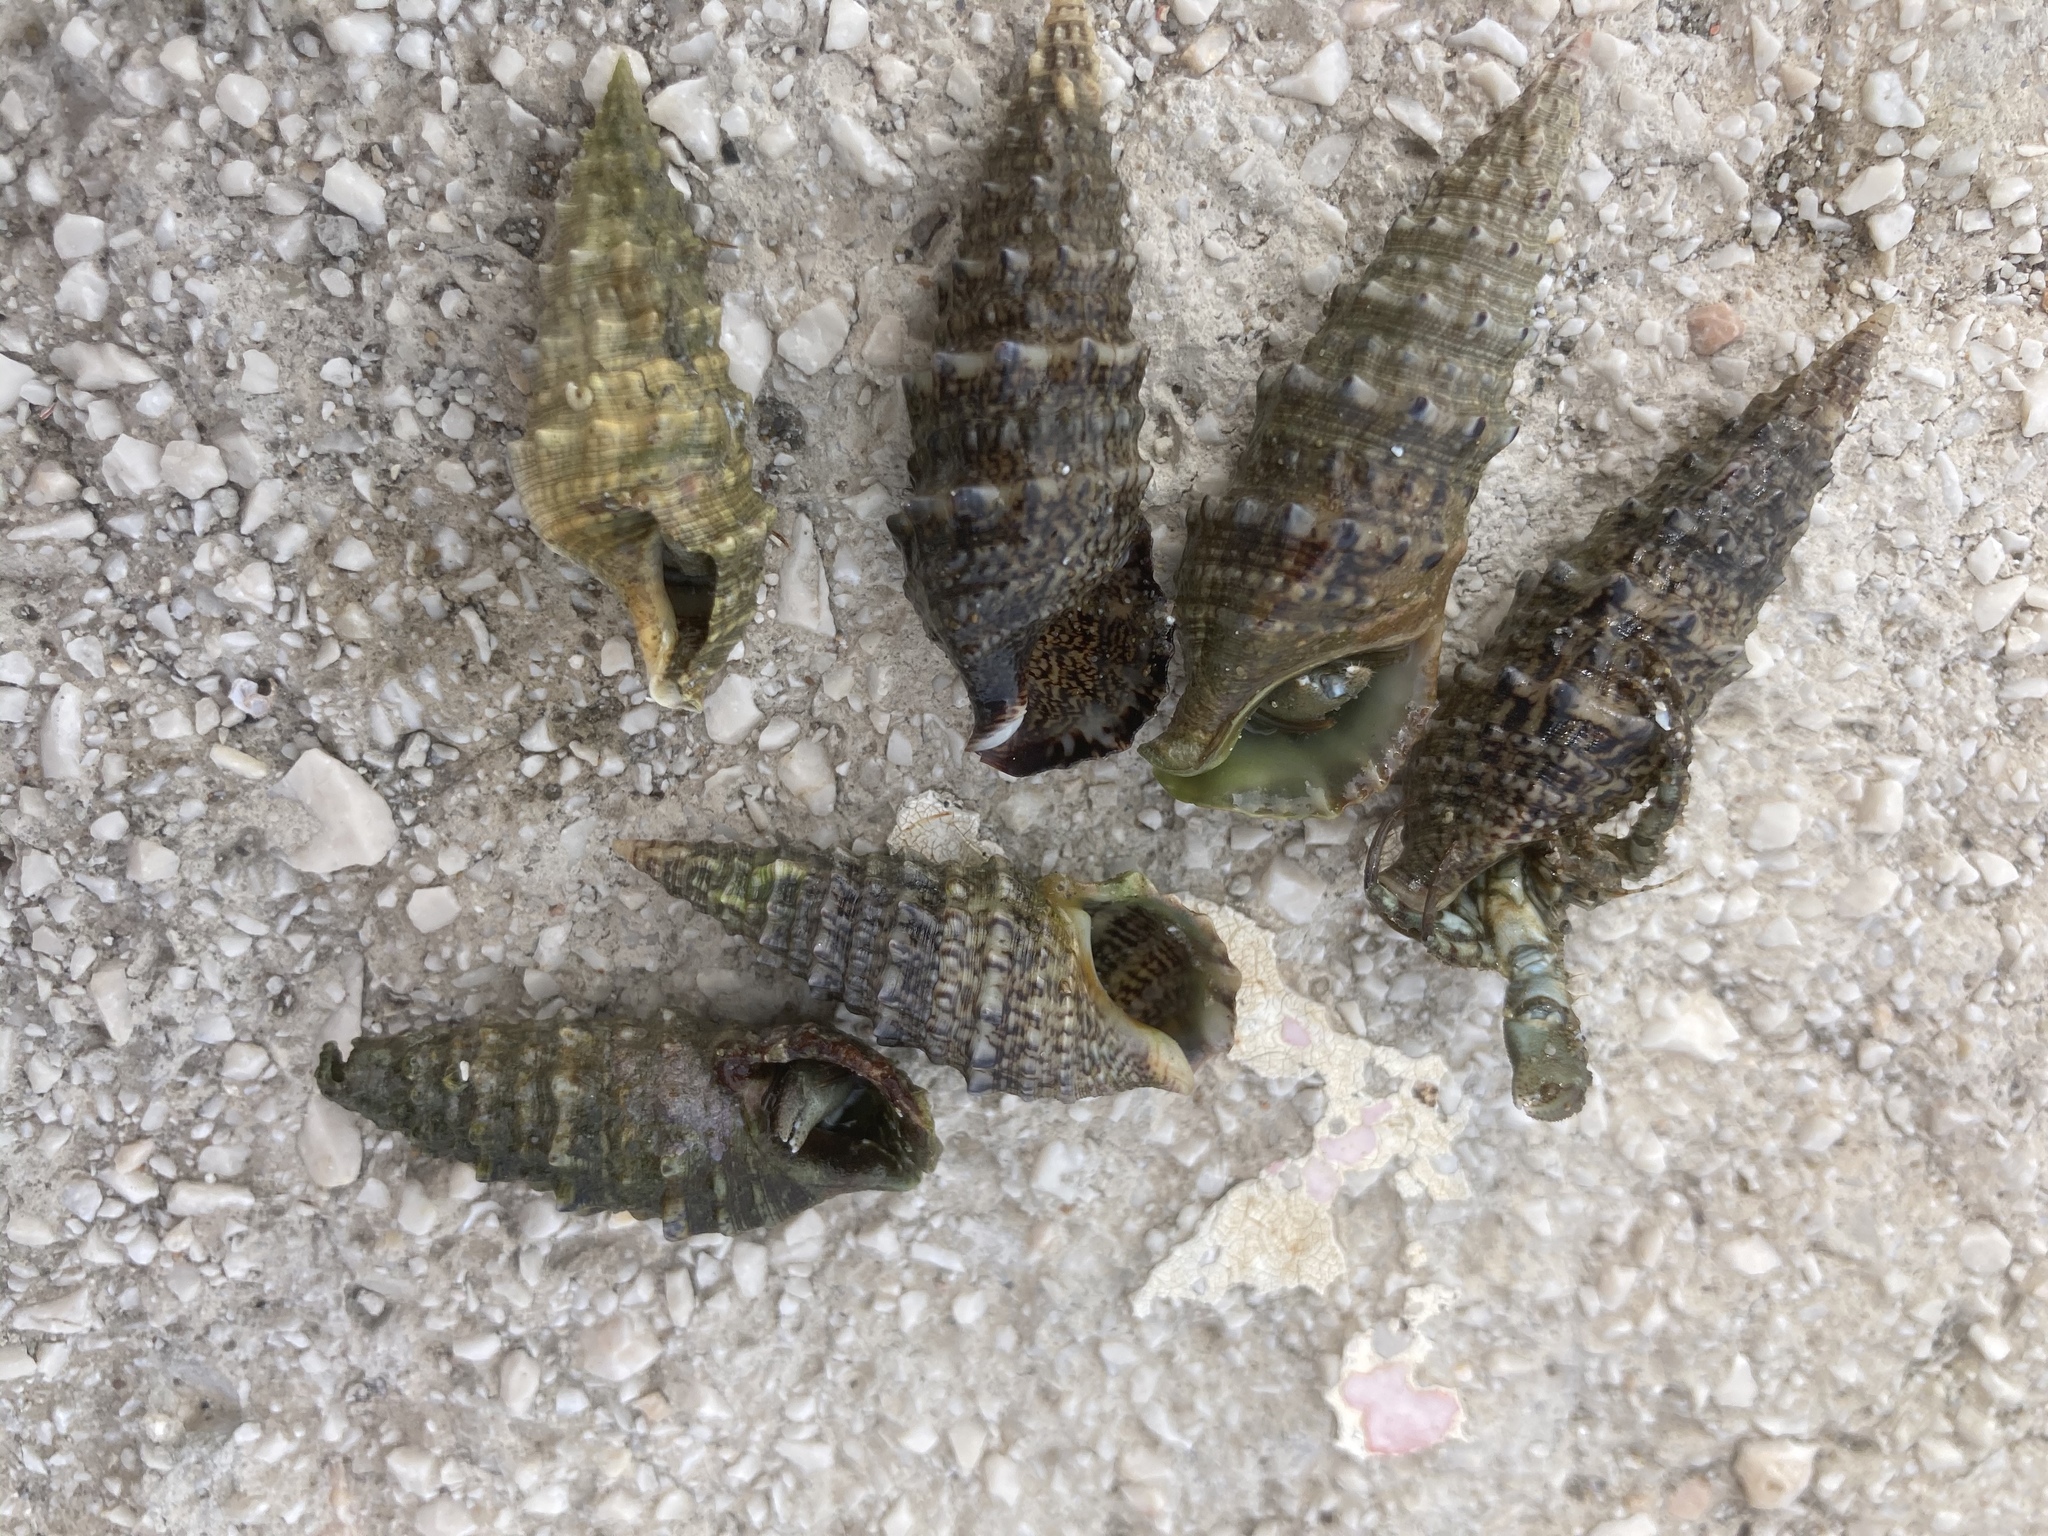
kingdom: Animalia
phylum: Mollusca
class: Gastropoda
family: Cerithiidae
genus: Cerithium
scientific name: Cerithium vulgatum
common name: European cerith
